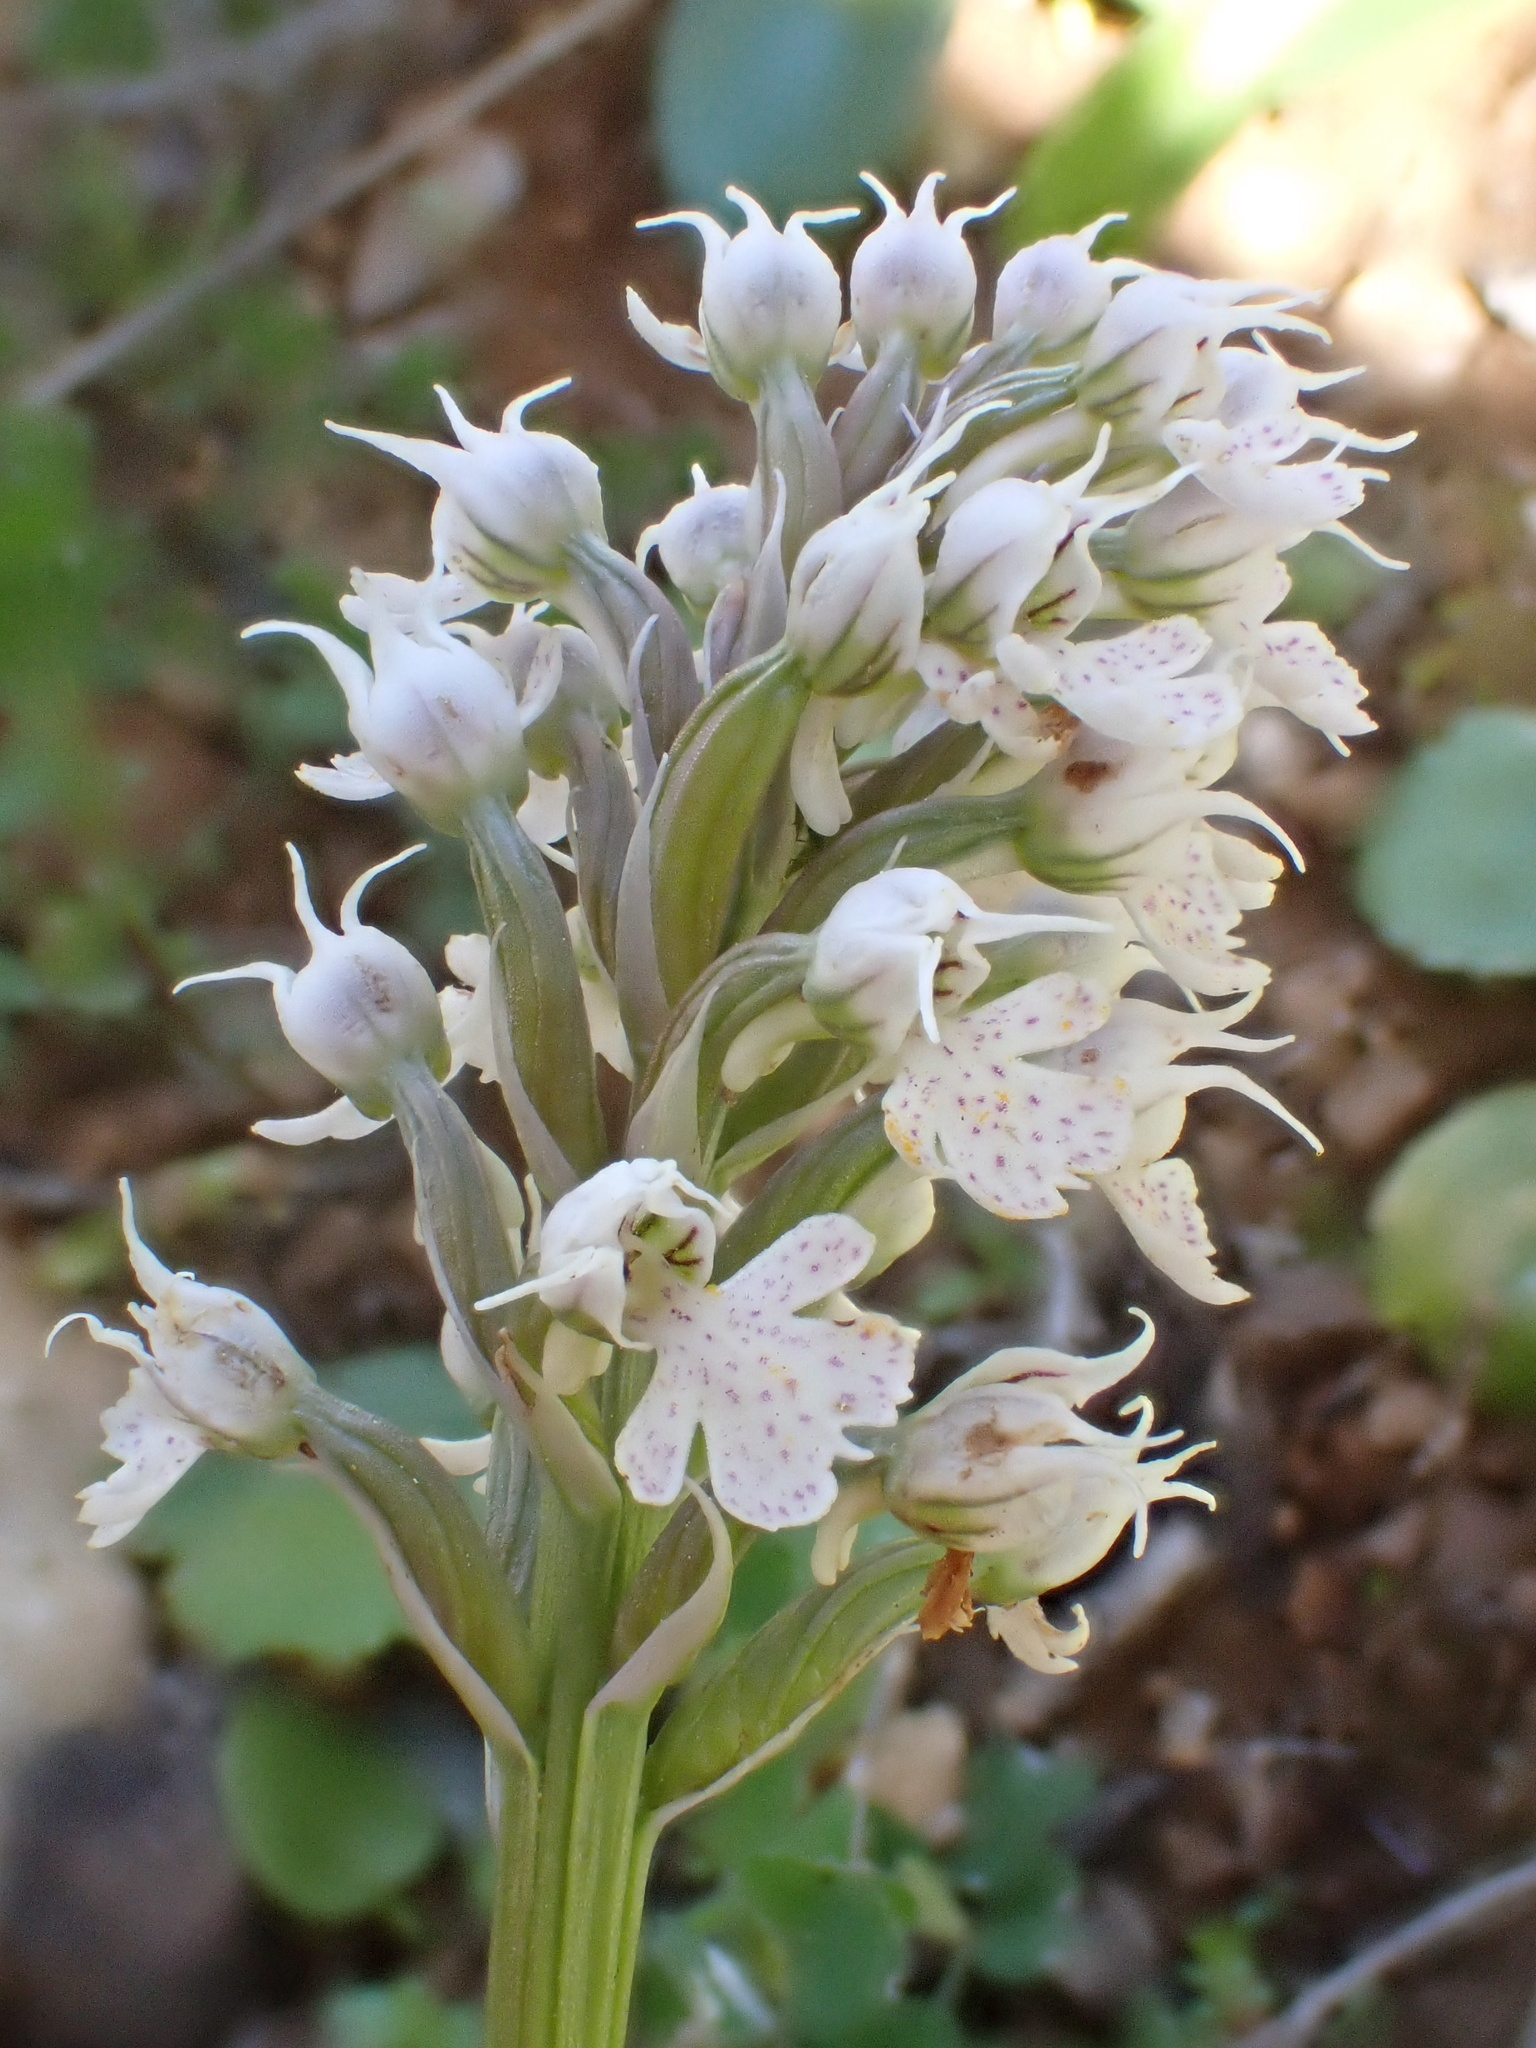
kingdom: Plantae
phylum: Tracheophyta
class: Liliopsida
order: Asparagales
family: Orchidaceae
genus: Neotinea
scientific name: Neotinea conica
